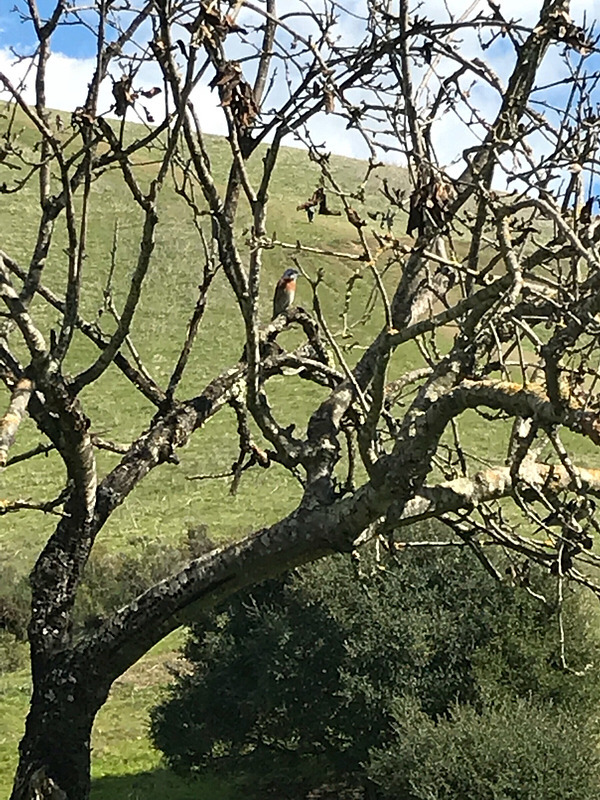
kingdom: Animalia
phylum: Chordata
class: Aves
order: Passeriformes
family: Turdidae
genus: Sialia
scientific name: Sialia mexicana
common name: Western bluebird
